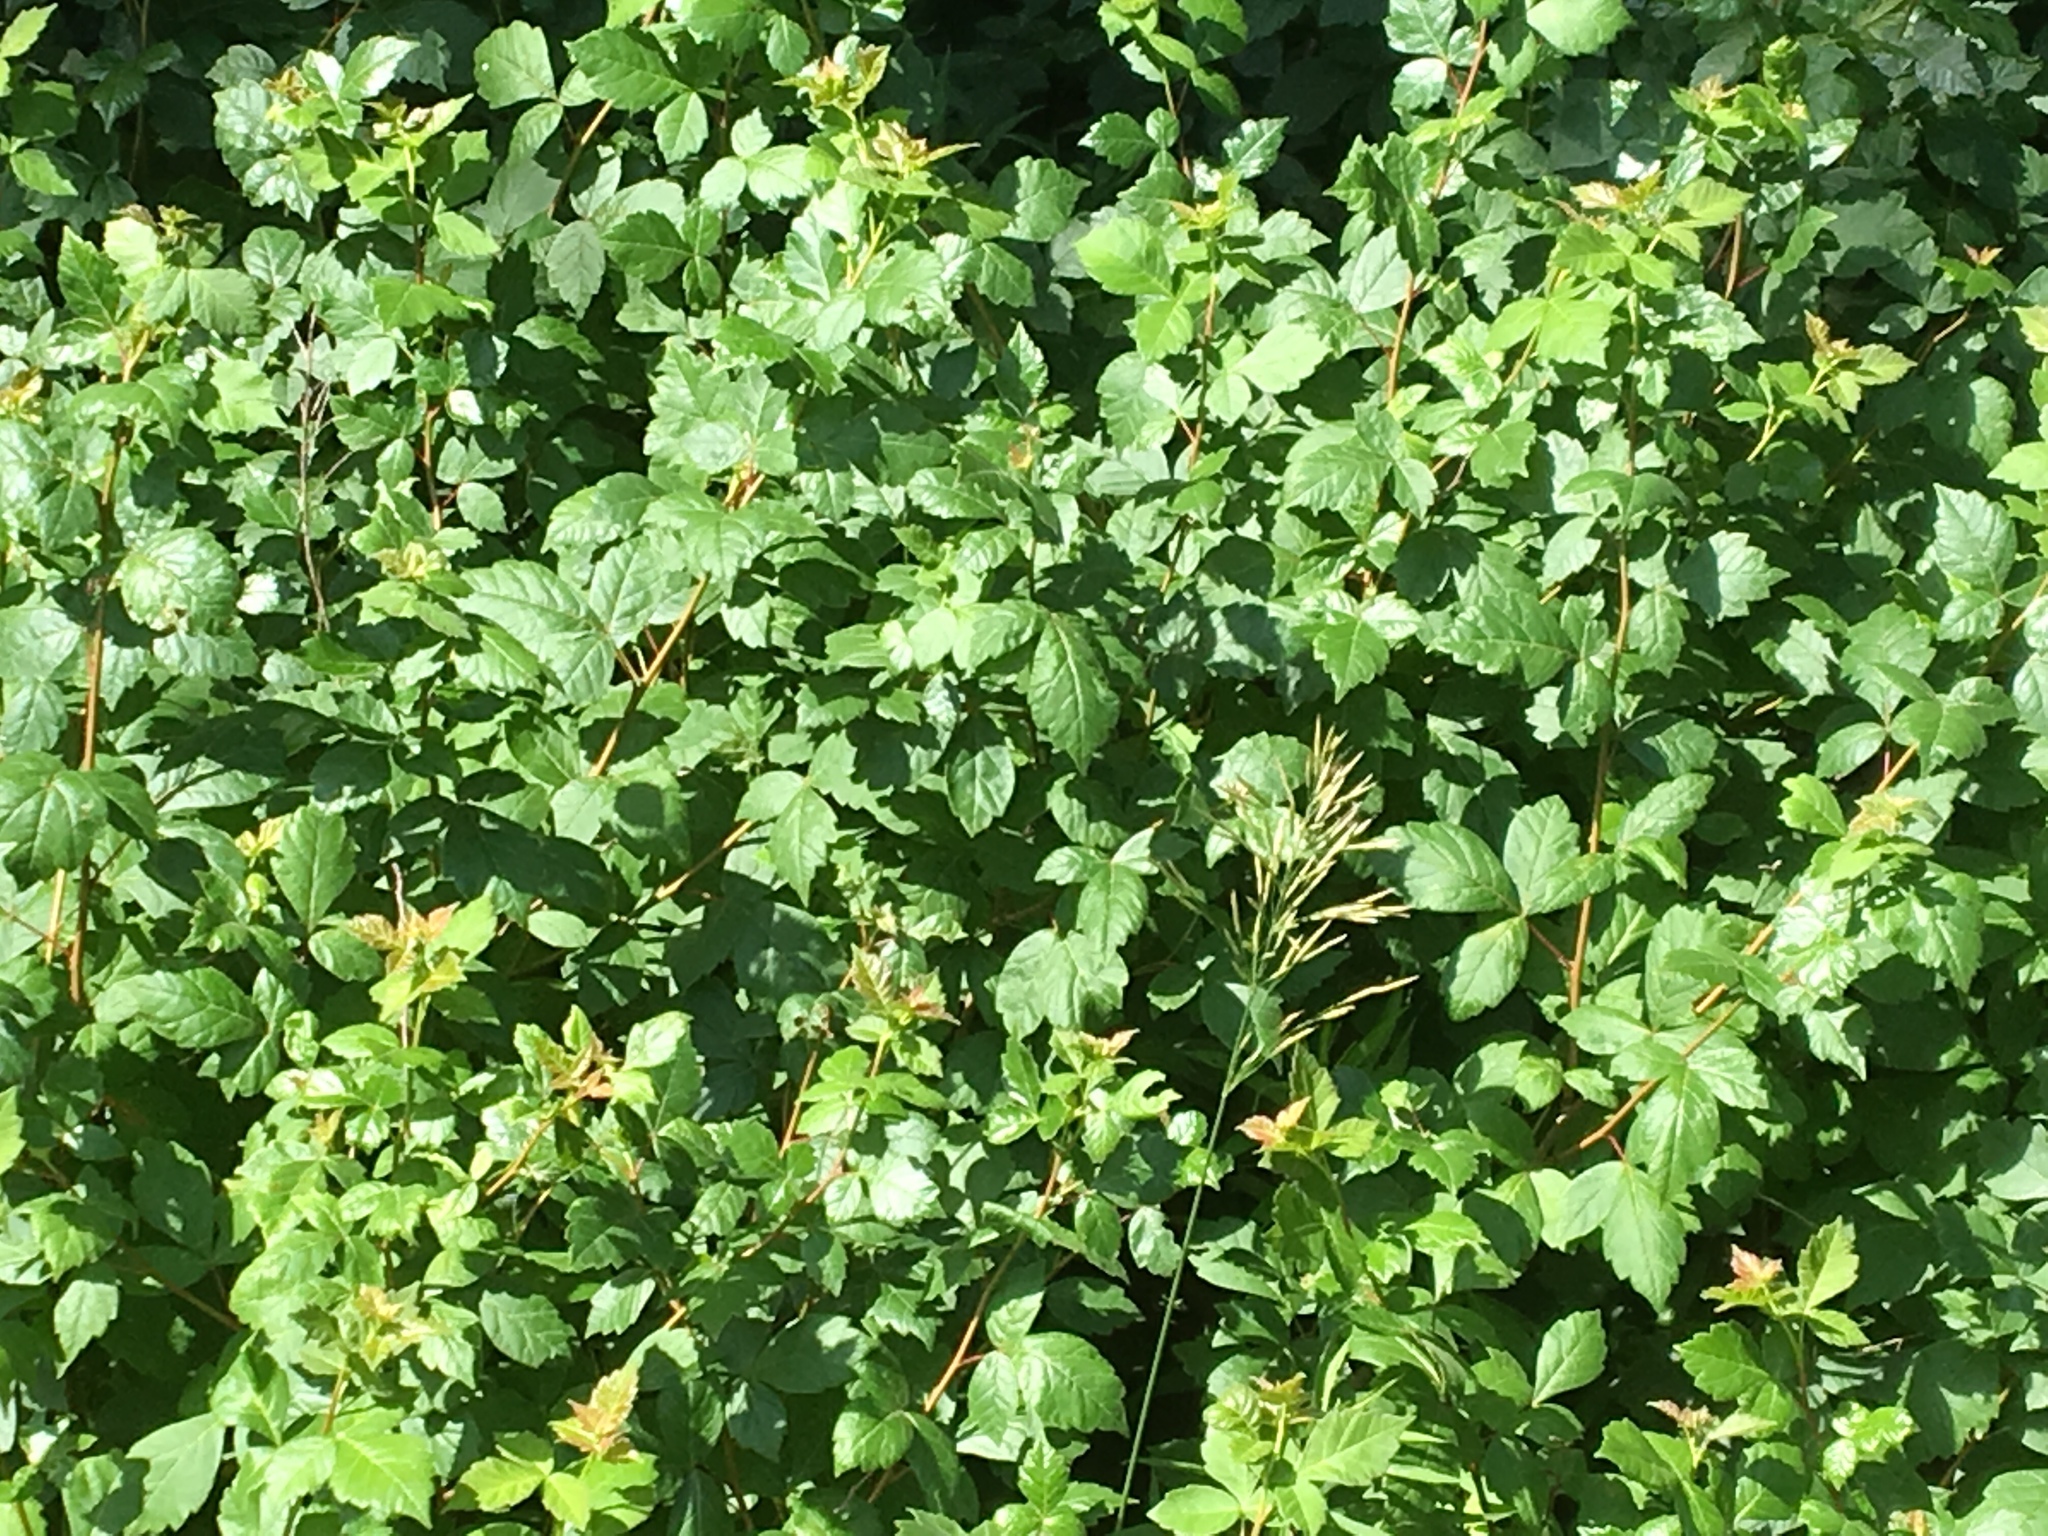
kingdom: Plantae
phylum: Tracheophyta
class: Magnoliopsida
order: Sapindales
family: Anacardiaceae
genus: Rhus
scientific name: Rhus aromatica
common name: Aromatic sumac
